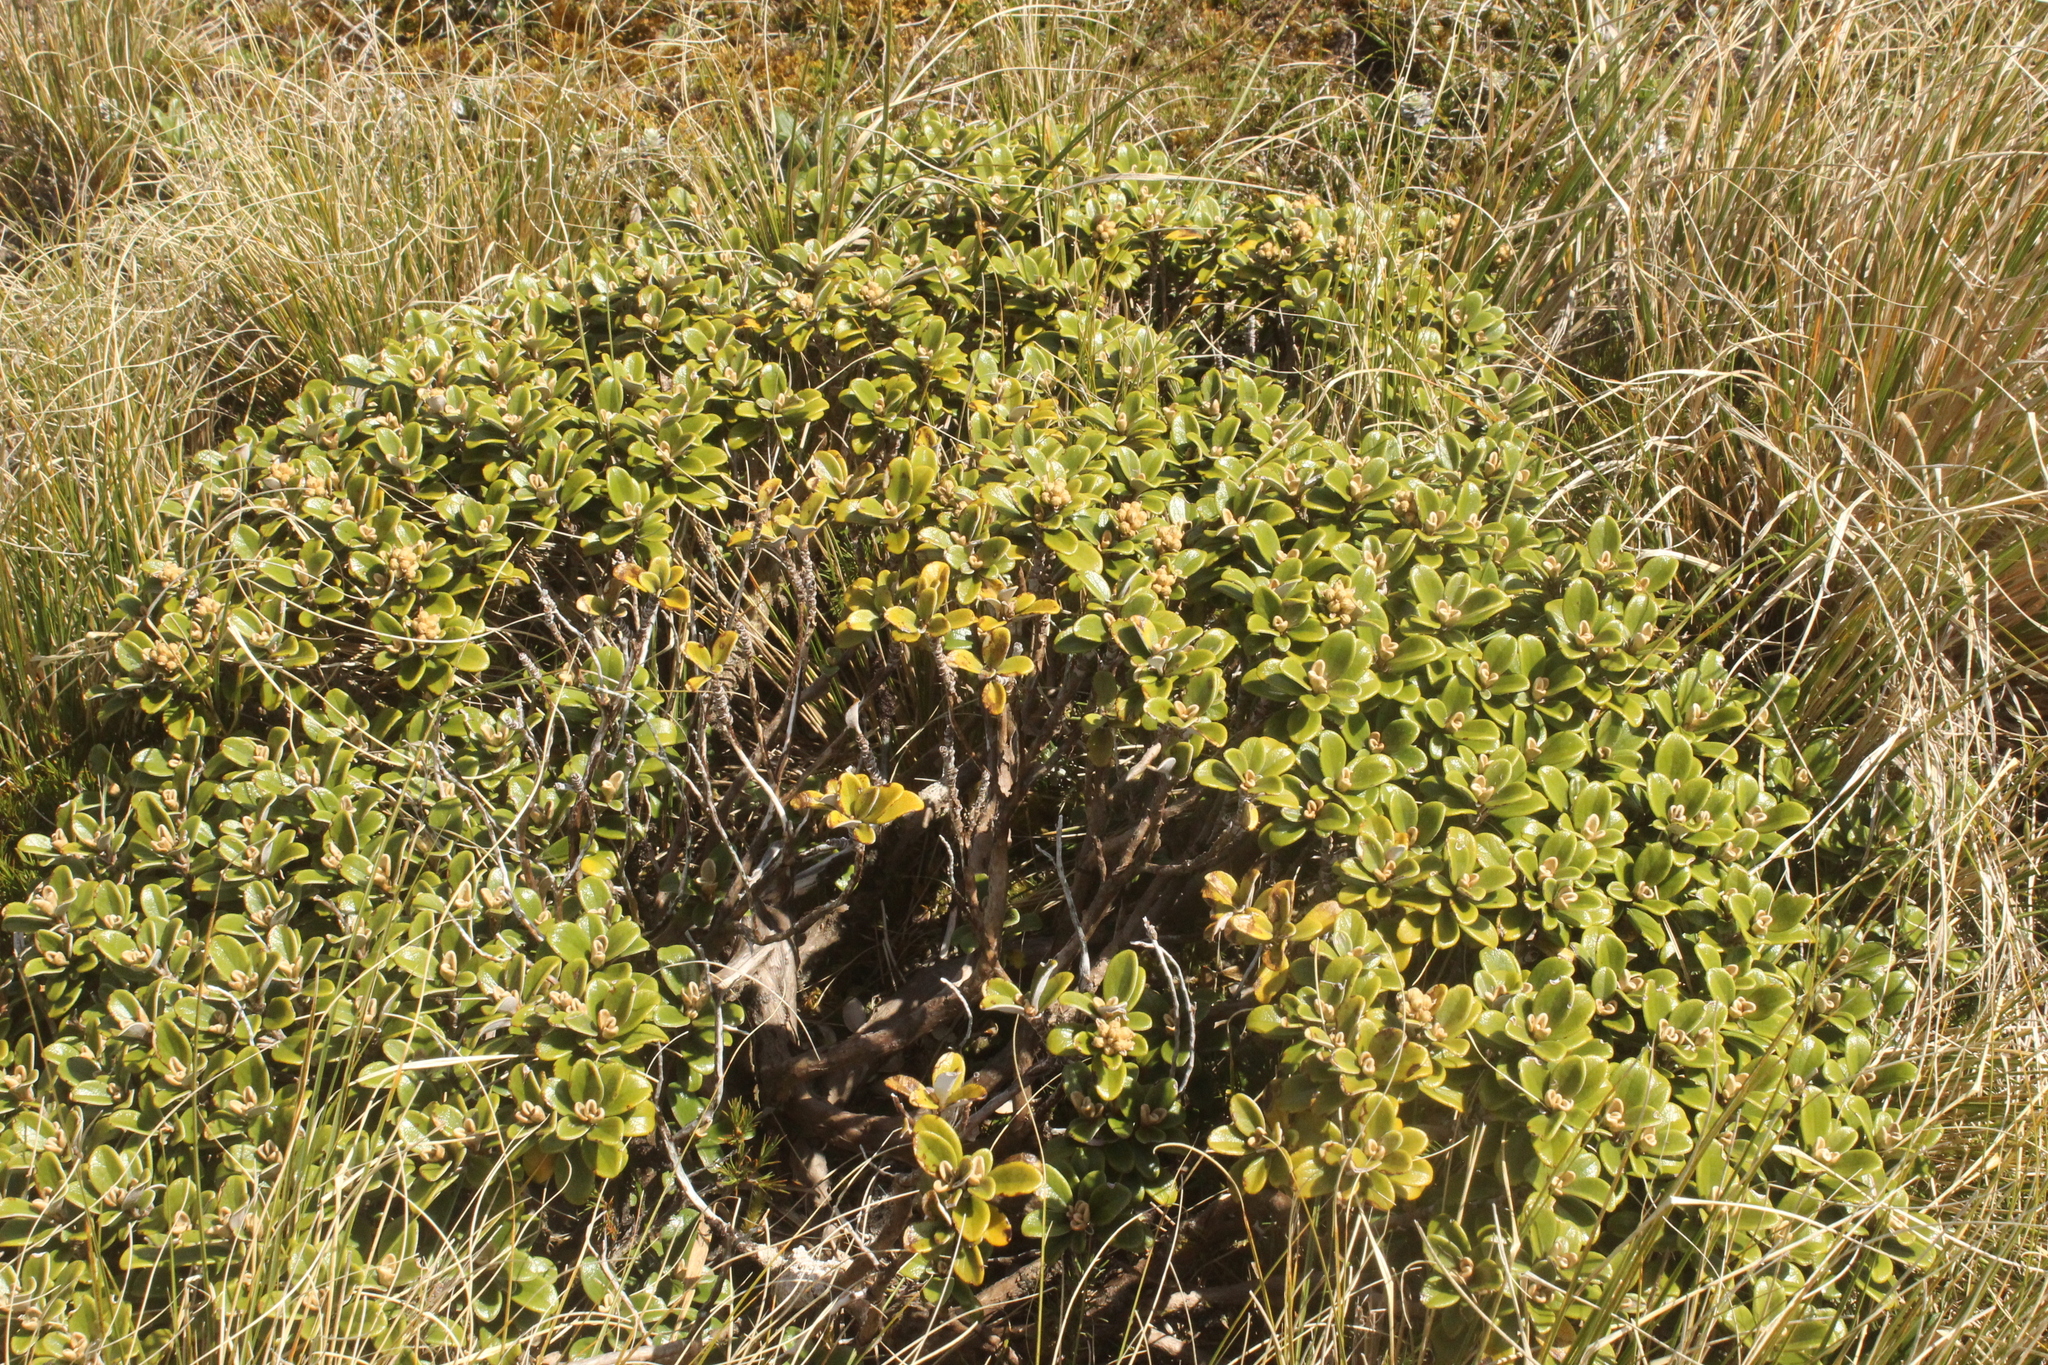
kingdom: Plantae
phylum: Tracheophyta
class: Magnoliopsida
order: Asterales
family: Asteraceae
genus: Brachyglottis
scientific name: Brachyglottis bidwillii
